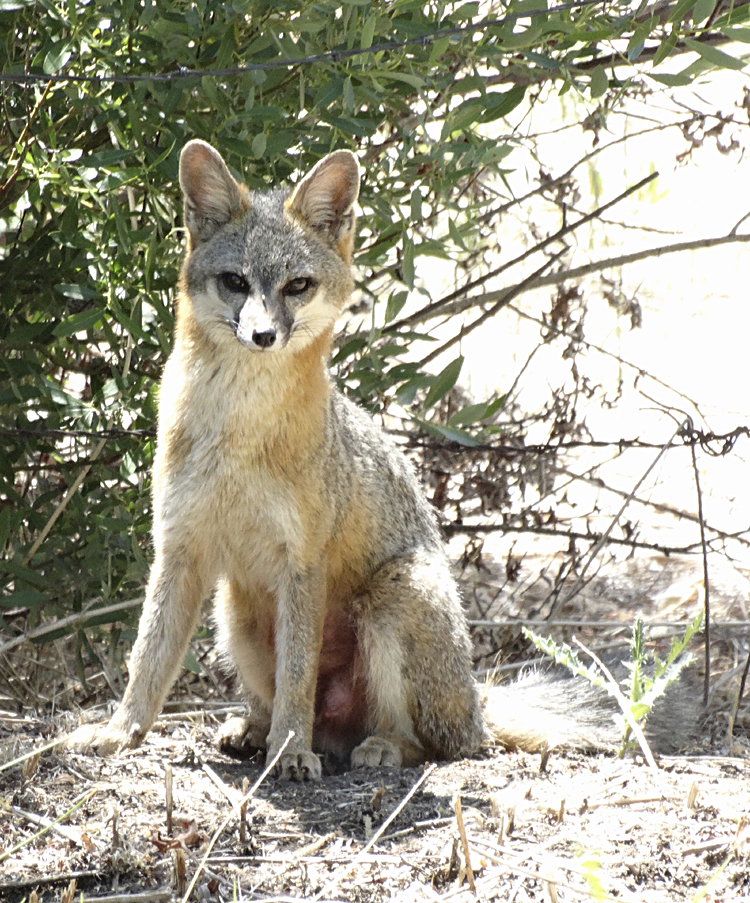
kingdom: Animalia
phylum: Chordata
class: Mammalia
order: Carnivora
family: Canidae
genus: Urocyon
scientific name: Urocyon cinereoargenteus
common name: Gray fox
